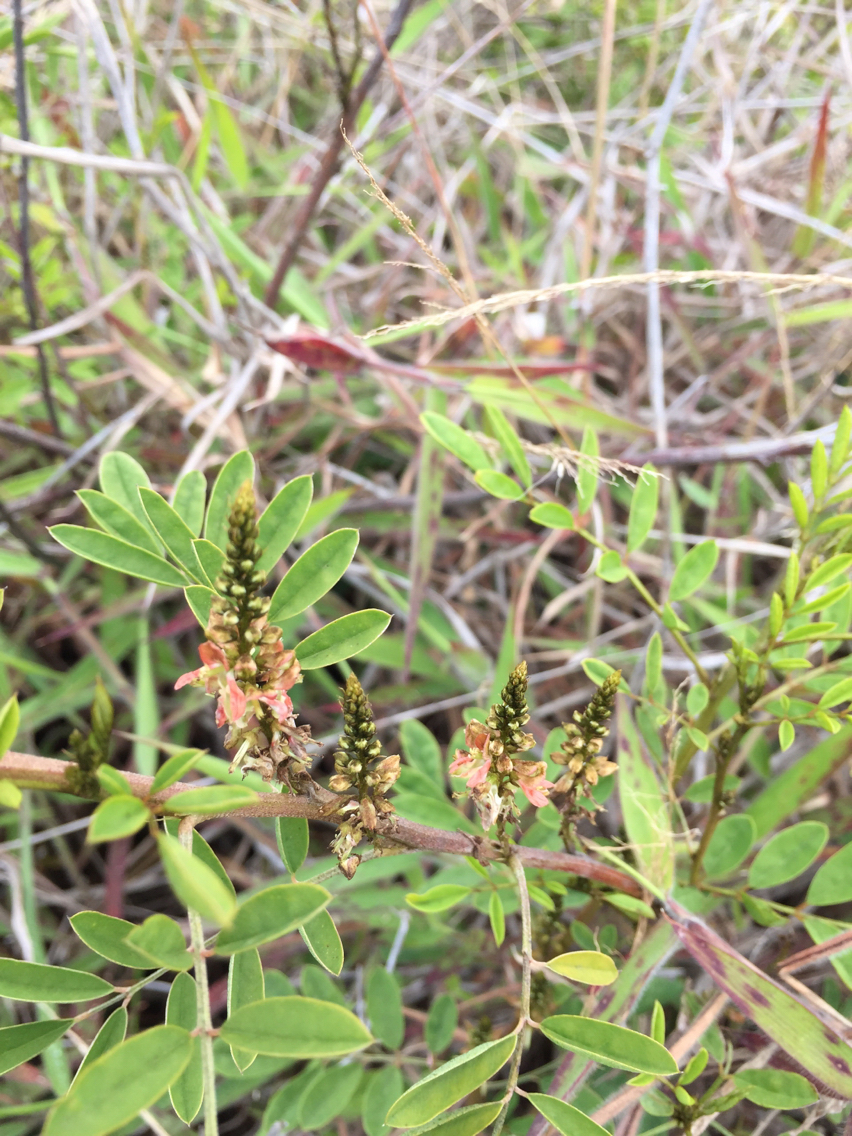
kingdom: Plantae
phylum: Tracheophyta
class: Magnoliopsida
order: Fabales
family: Fabaceae
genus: Indigofera
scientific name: Indigofera suffruticosa
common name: Anil de pasto
